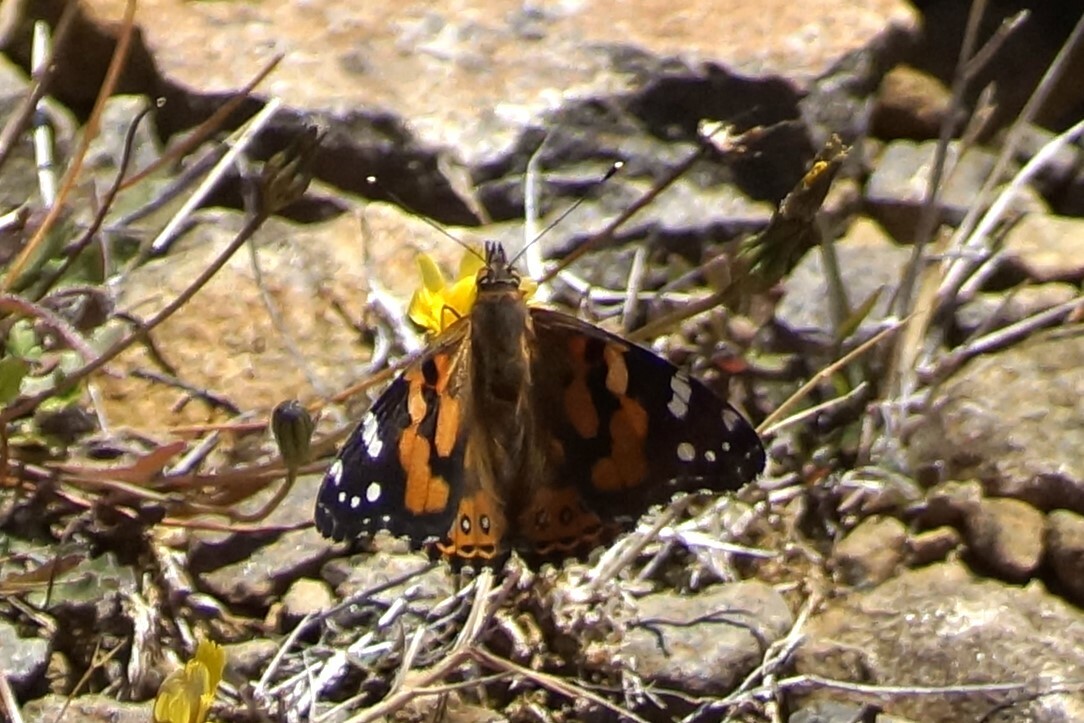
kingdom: Animalia
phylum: Arthropoda
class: Insecta
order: Lepidoptera
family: Nymphalidae
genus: Vanessa
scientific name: Vanessa kershawi
